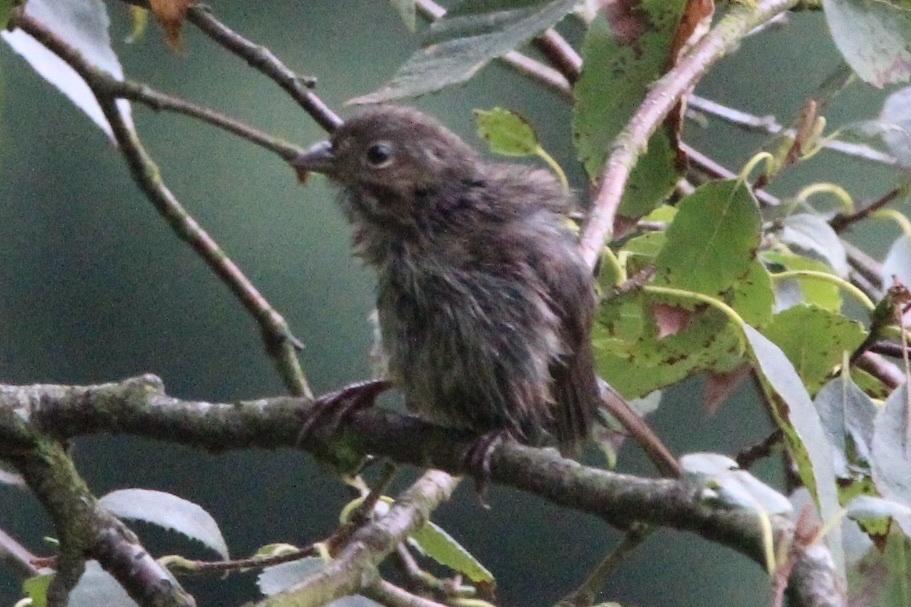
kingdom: Animalia
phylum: Chordata
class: Aves
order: Passeriformes
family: Passerellidae
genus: Melospiza
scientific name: Melospiza melodia
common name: Song sparrow
